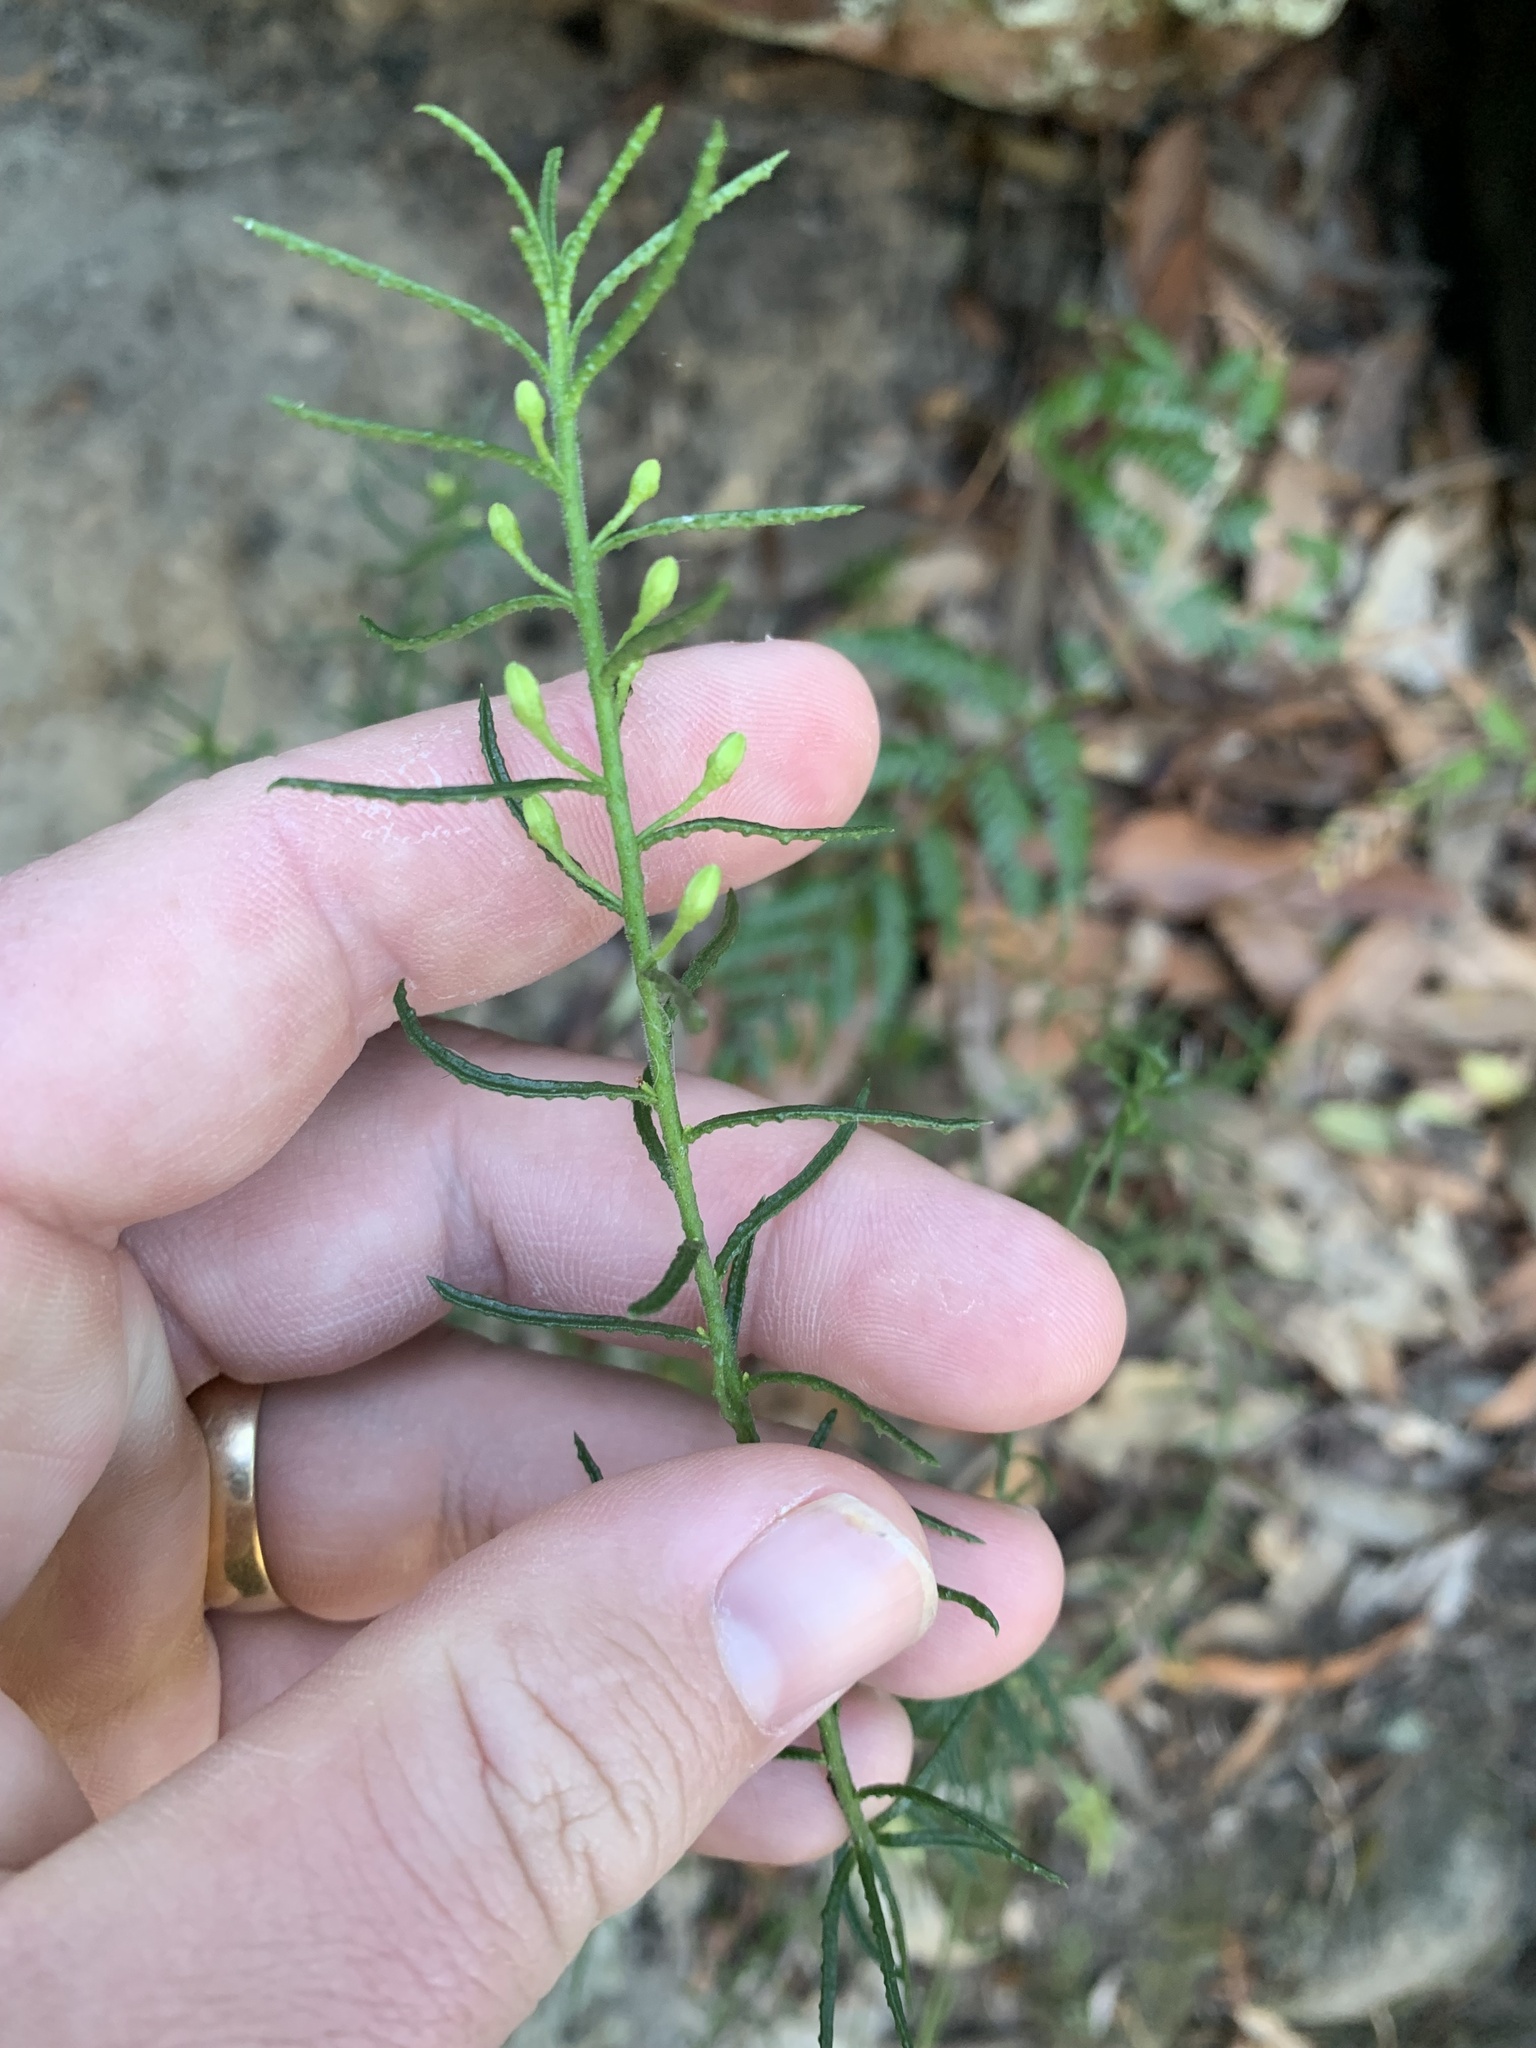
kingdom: Plantae
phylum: Tracheophyta
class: Magnoliopsida
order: Sapindales
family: Rutaceae
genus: Philotheca
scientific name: Philotheca scabra
